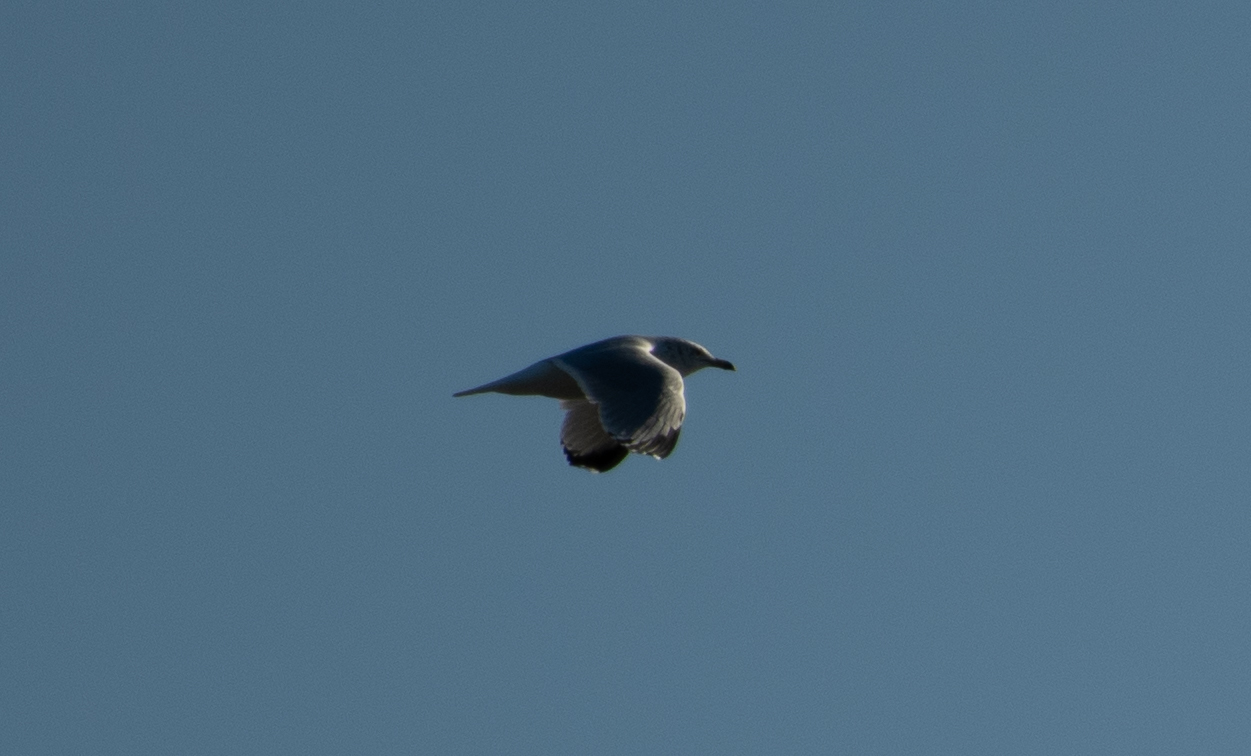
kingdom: Animalia
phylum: Chordata
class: Aves
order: Charadriiformes
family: Laridae
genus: Larus
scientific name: Larus delawarensis
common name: Ring-billed gull
